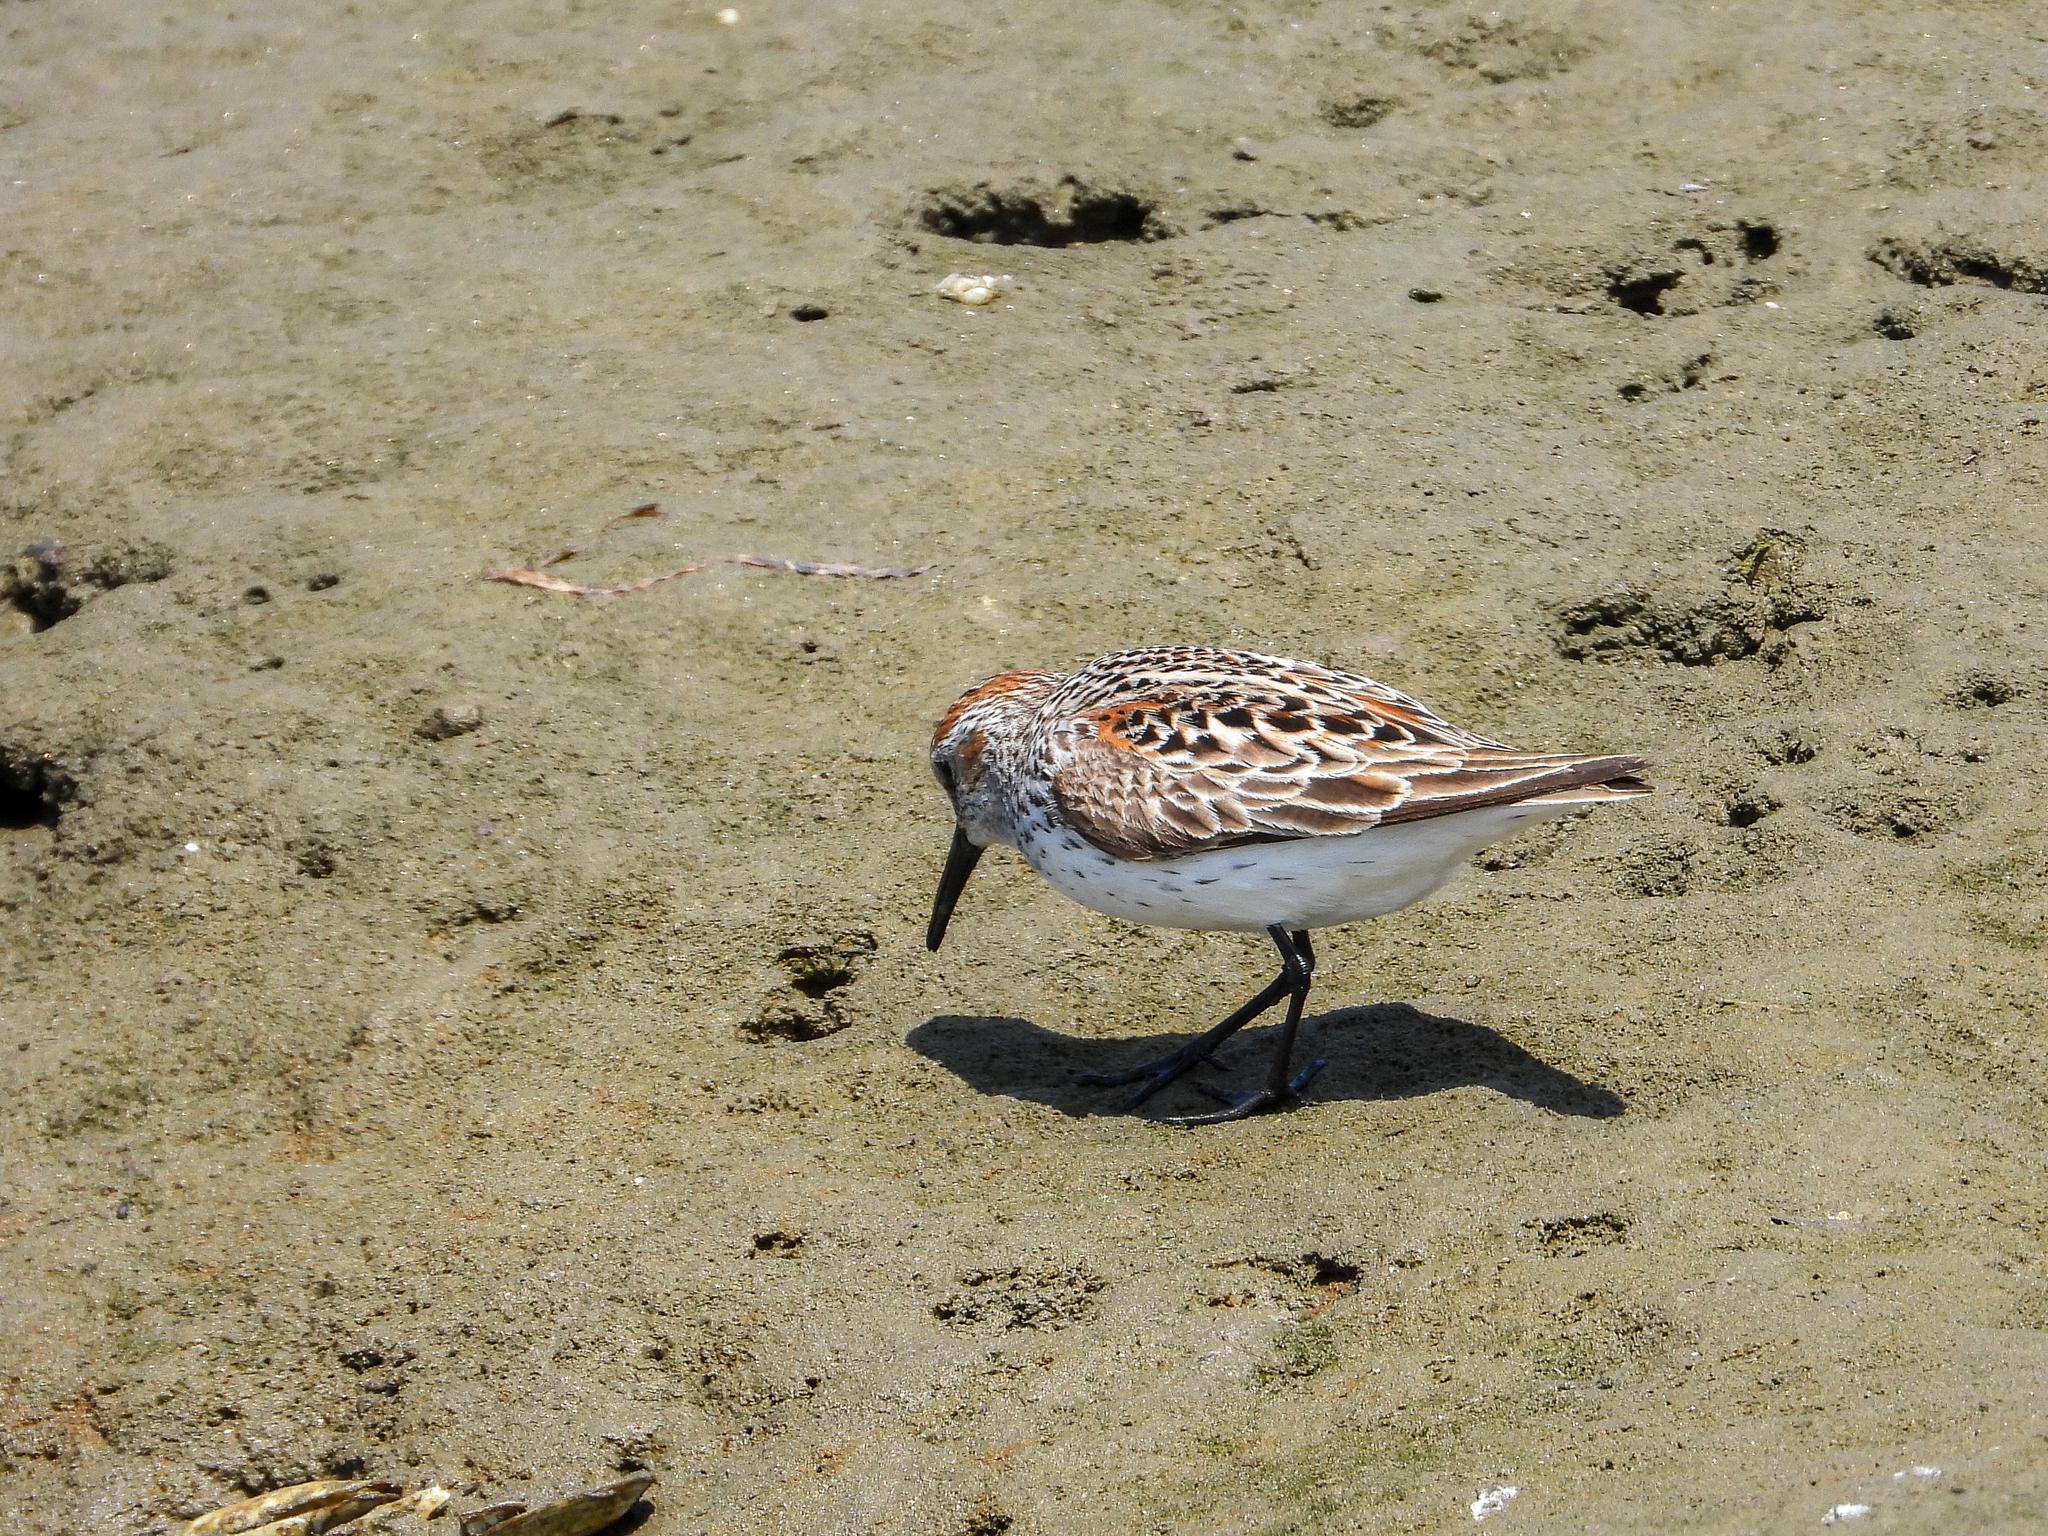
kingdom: Animalia
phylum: Chordata
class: Aves
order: Charadriiformes
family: Scolopacidae
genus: Calidris
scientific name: Calidris mauri
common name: Western sandpiper
